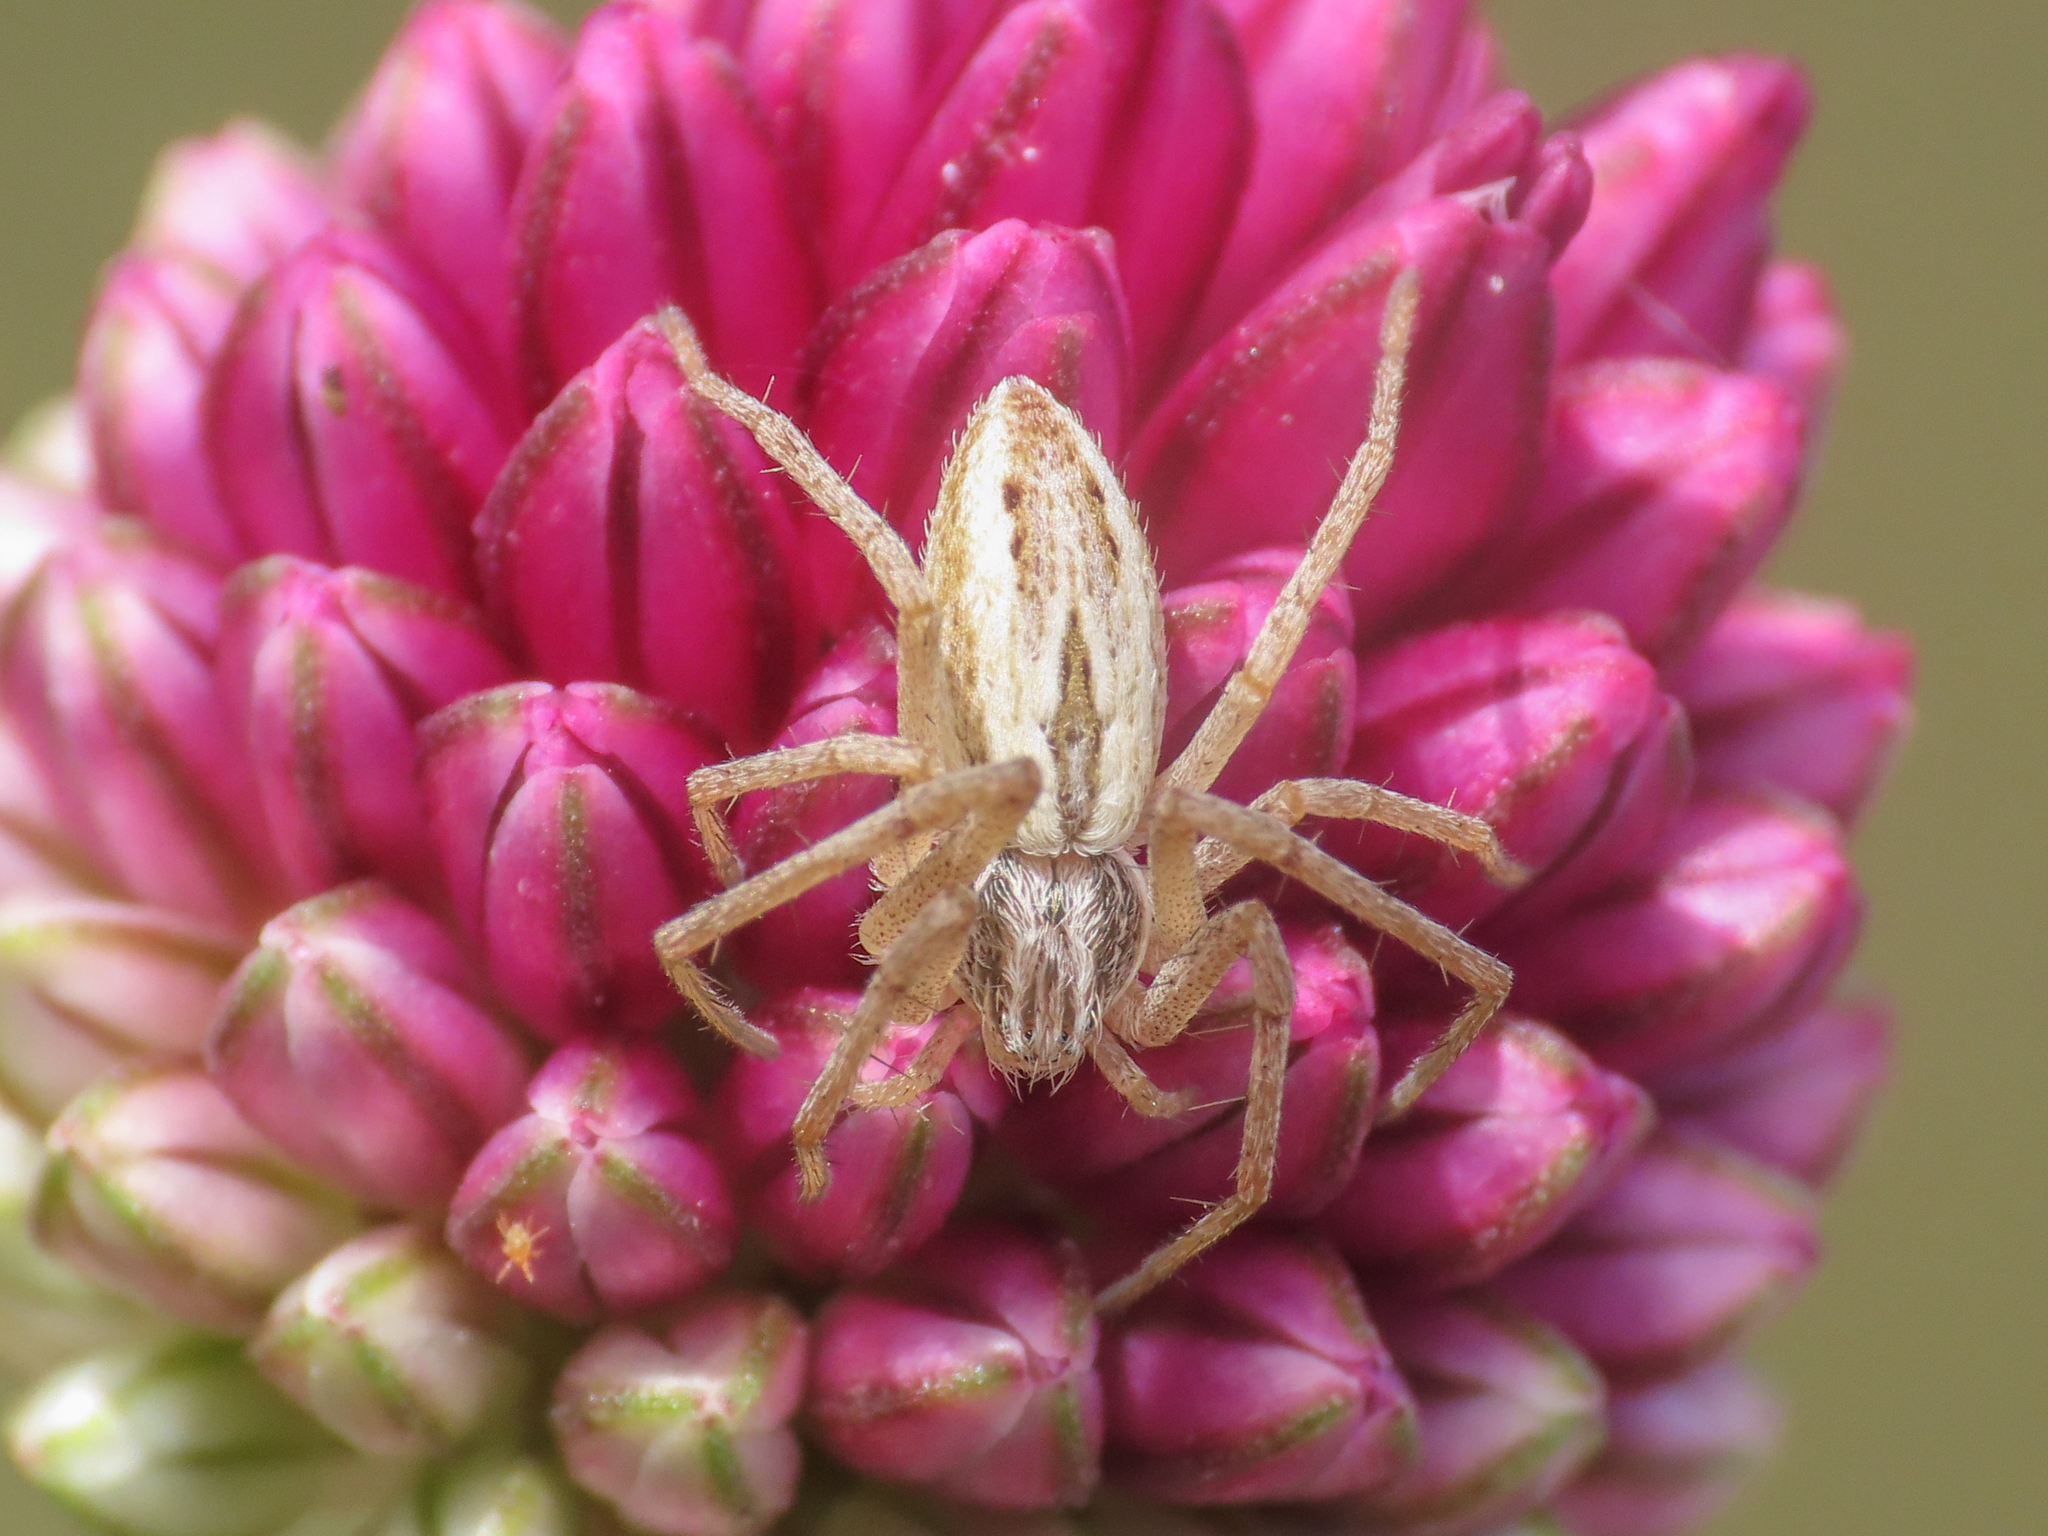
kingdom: Animalia
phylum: Arthropoda
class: Arachnida
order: Araneae
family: Philodromidae
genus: Thanatus
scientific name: Thanatus oblongiusculus
